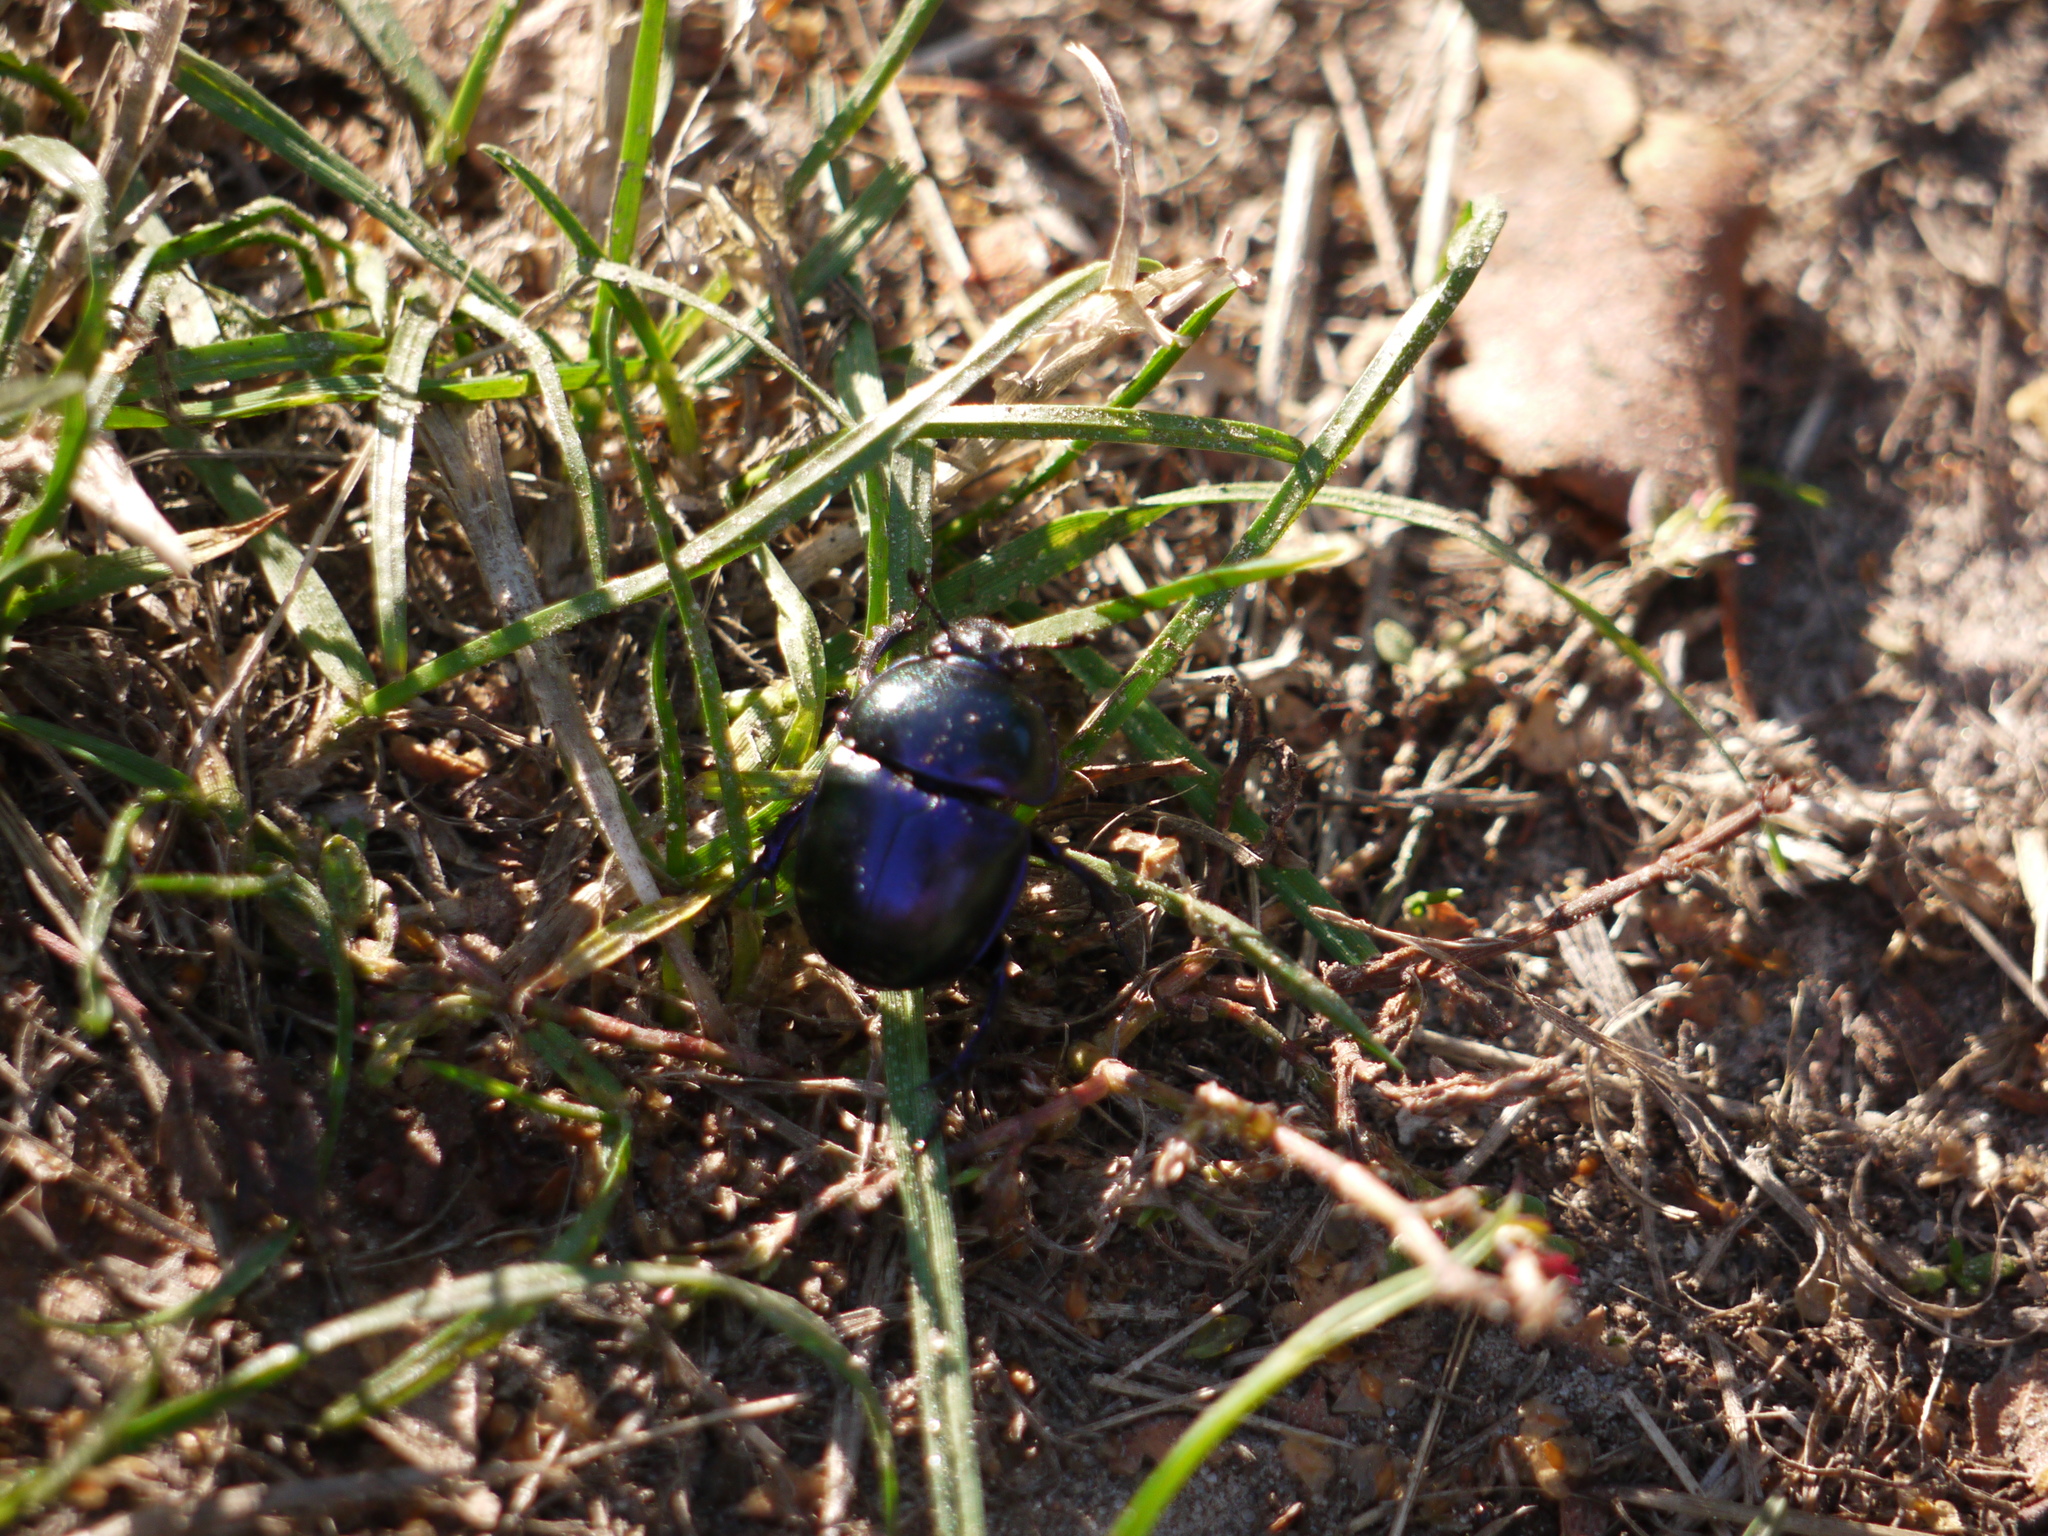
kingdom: Animalia
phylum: Arthropoda
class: Insecta
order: Coleoptera
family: Geotrupidae
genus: Trypocopris
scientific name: Trypocopris vernalis
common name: Spring dumbledor
